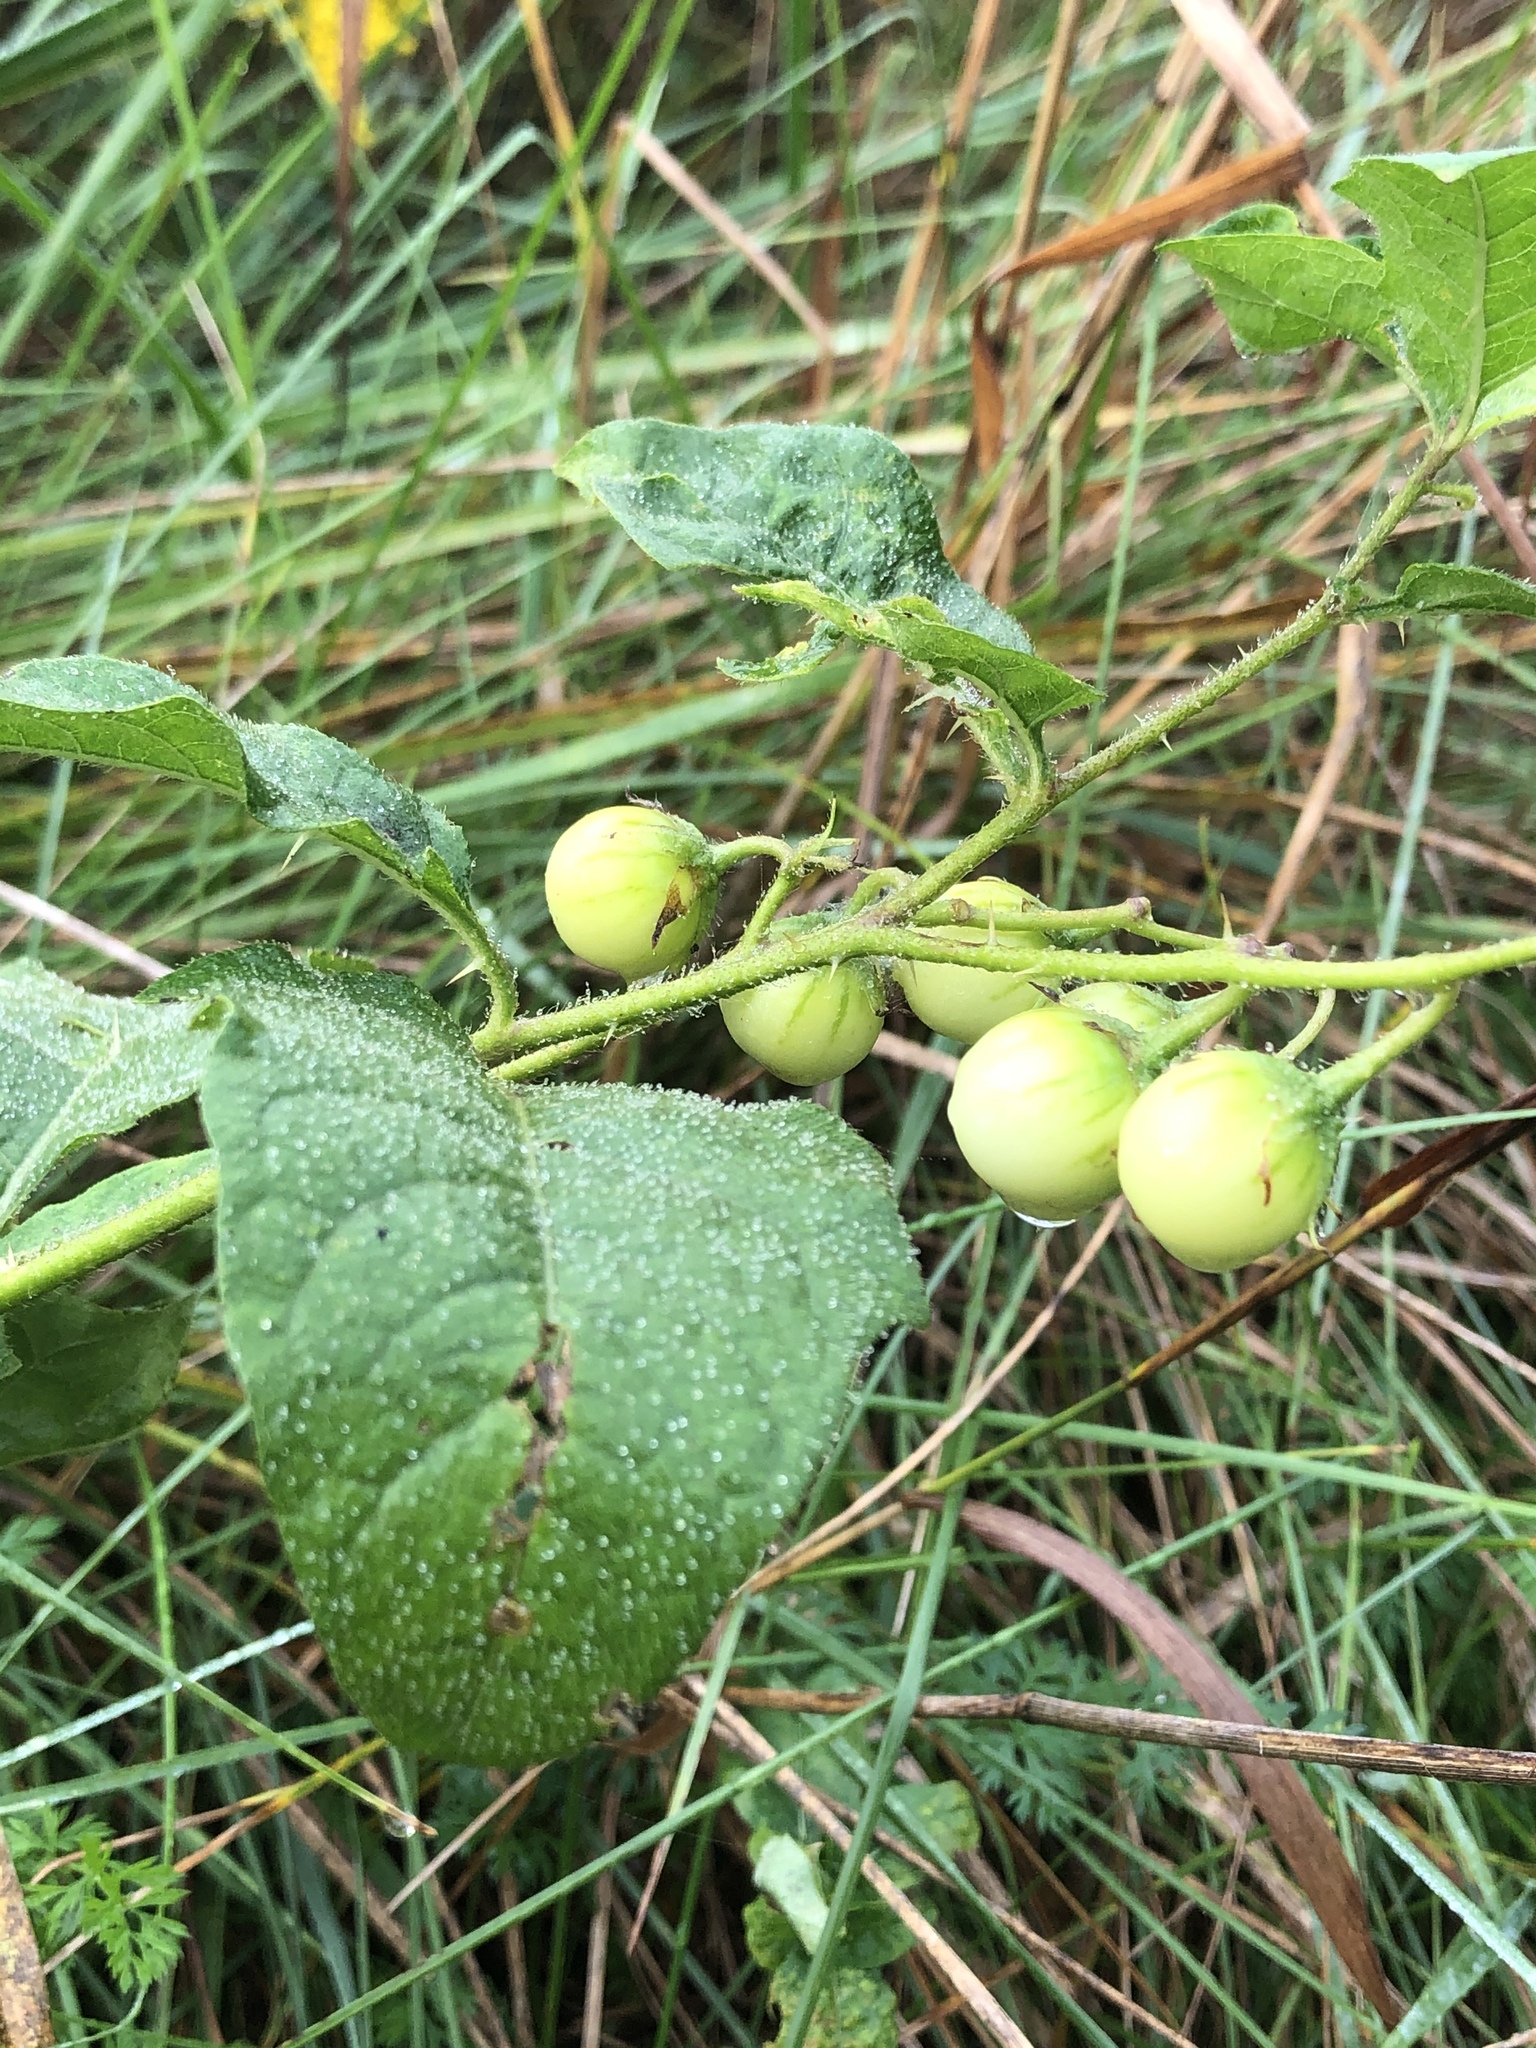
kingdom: Plantae
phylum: Tracheophyta
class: Magnoliopsida
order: Solanales
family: Solanaceae
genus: Solanum
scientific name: Solanum carolinense
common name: Horse-nettle
